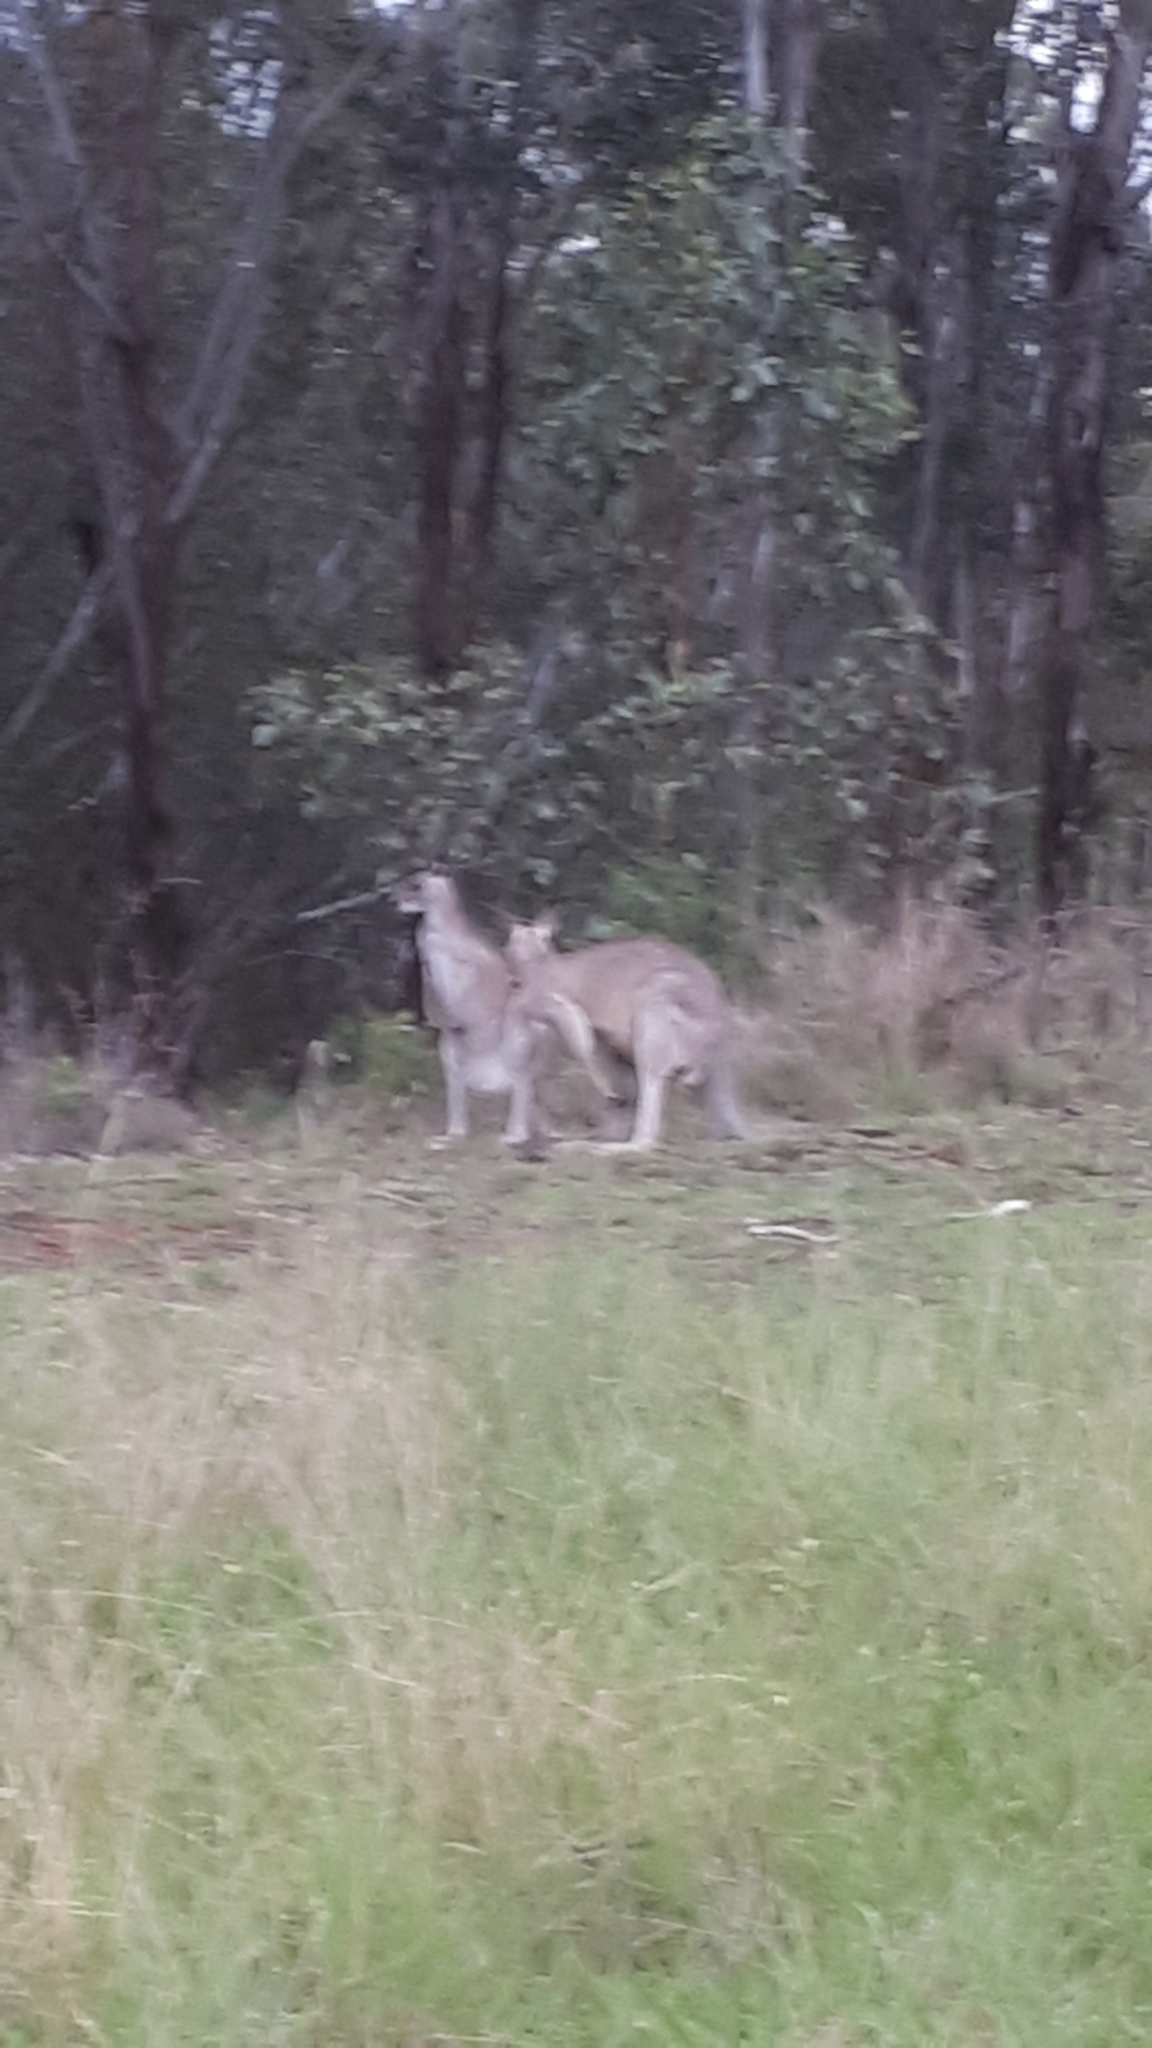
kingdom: Animalia
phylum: Chordata
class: Mammalia
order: Diprotodontia
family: Macropodidae
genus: Macropus
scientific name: Macropus giganteus
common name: Eastern grey kangaroo
